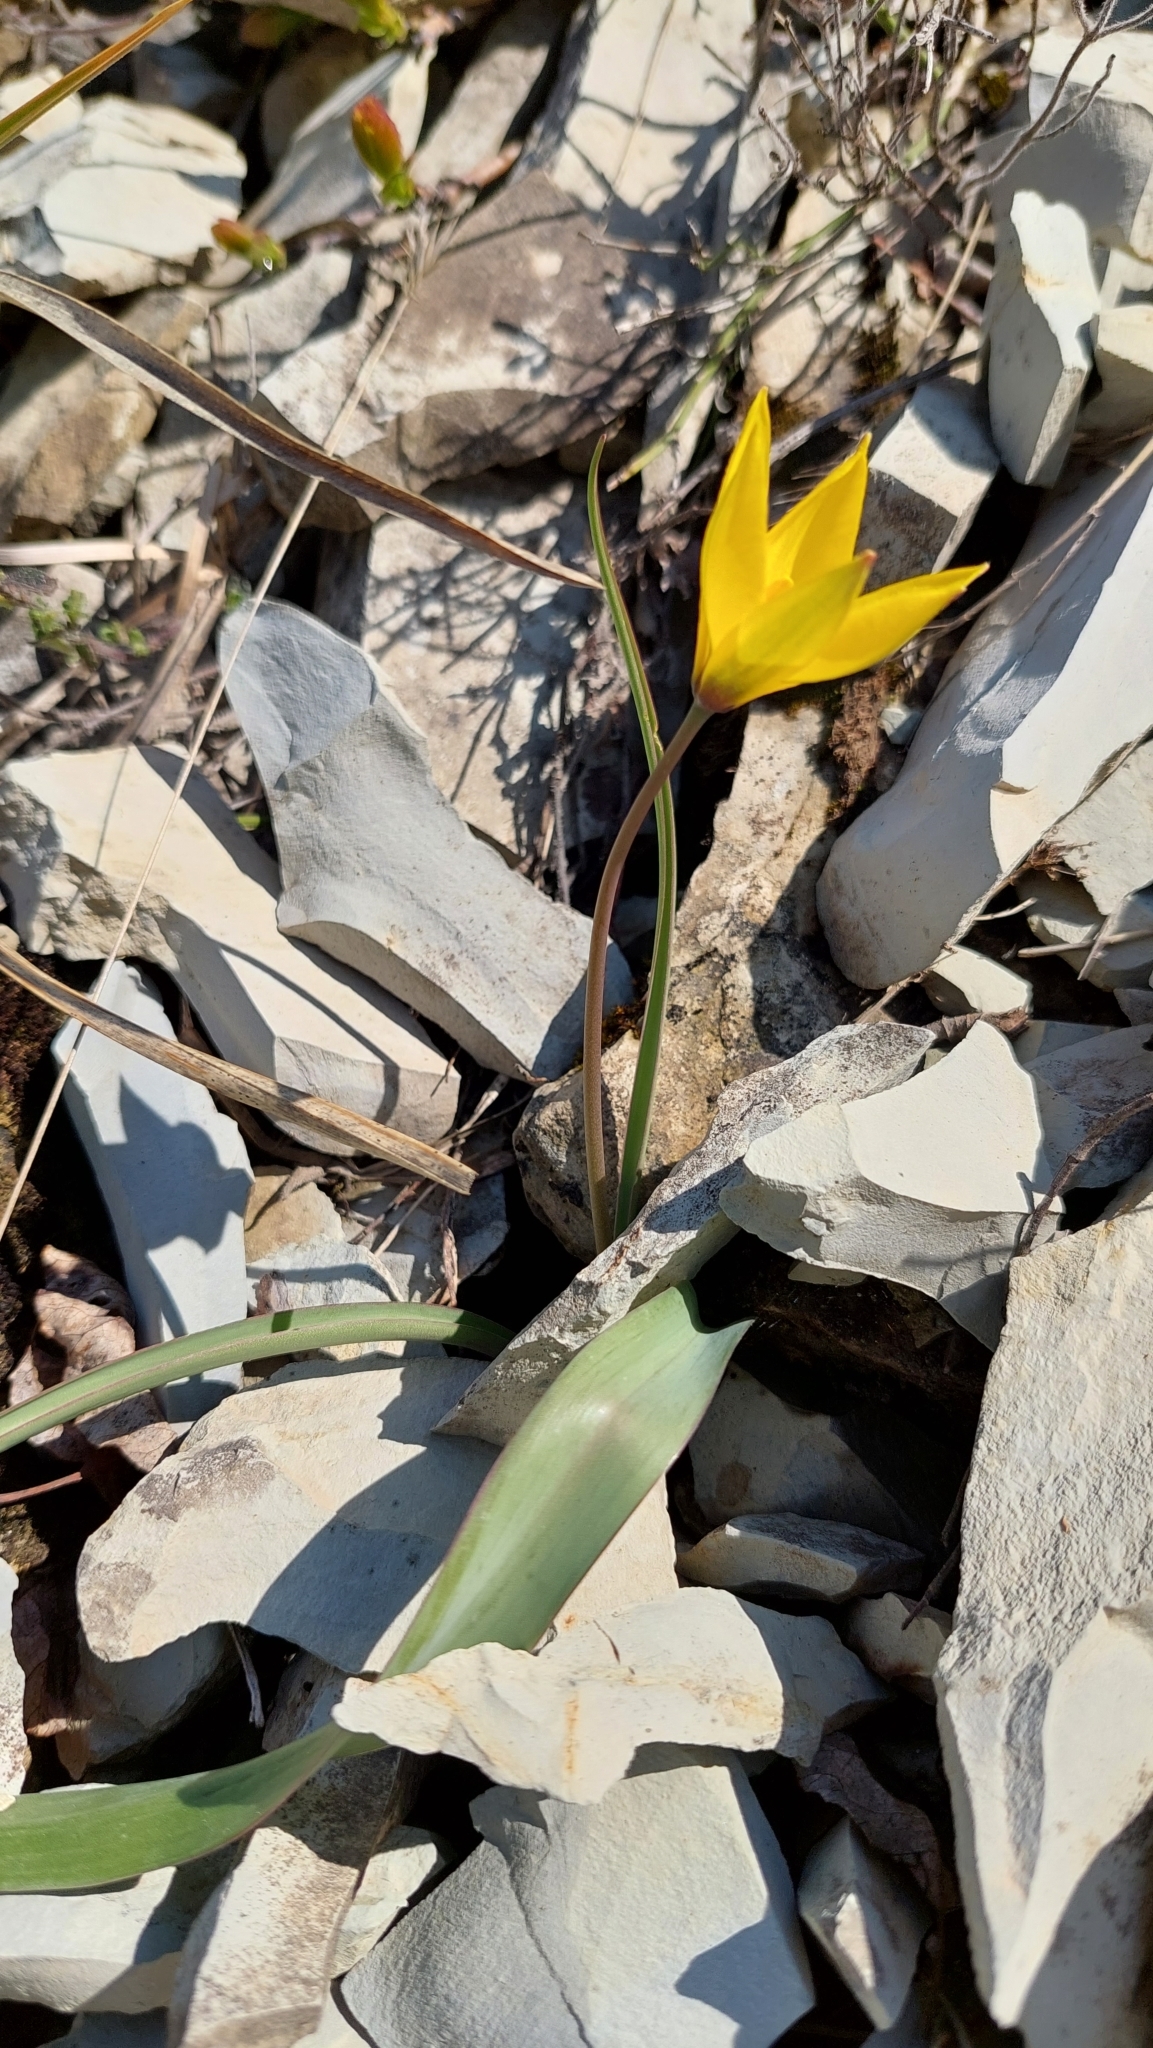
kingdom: Plantae
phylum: Tracheophyta
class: Liliopsida
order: Liliales
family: Liliaceae
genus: Tulipa
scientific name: Tulipa sylvestris
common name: Wild tulip
